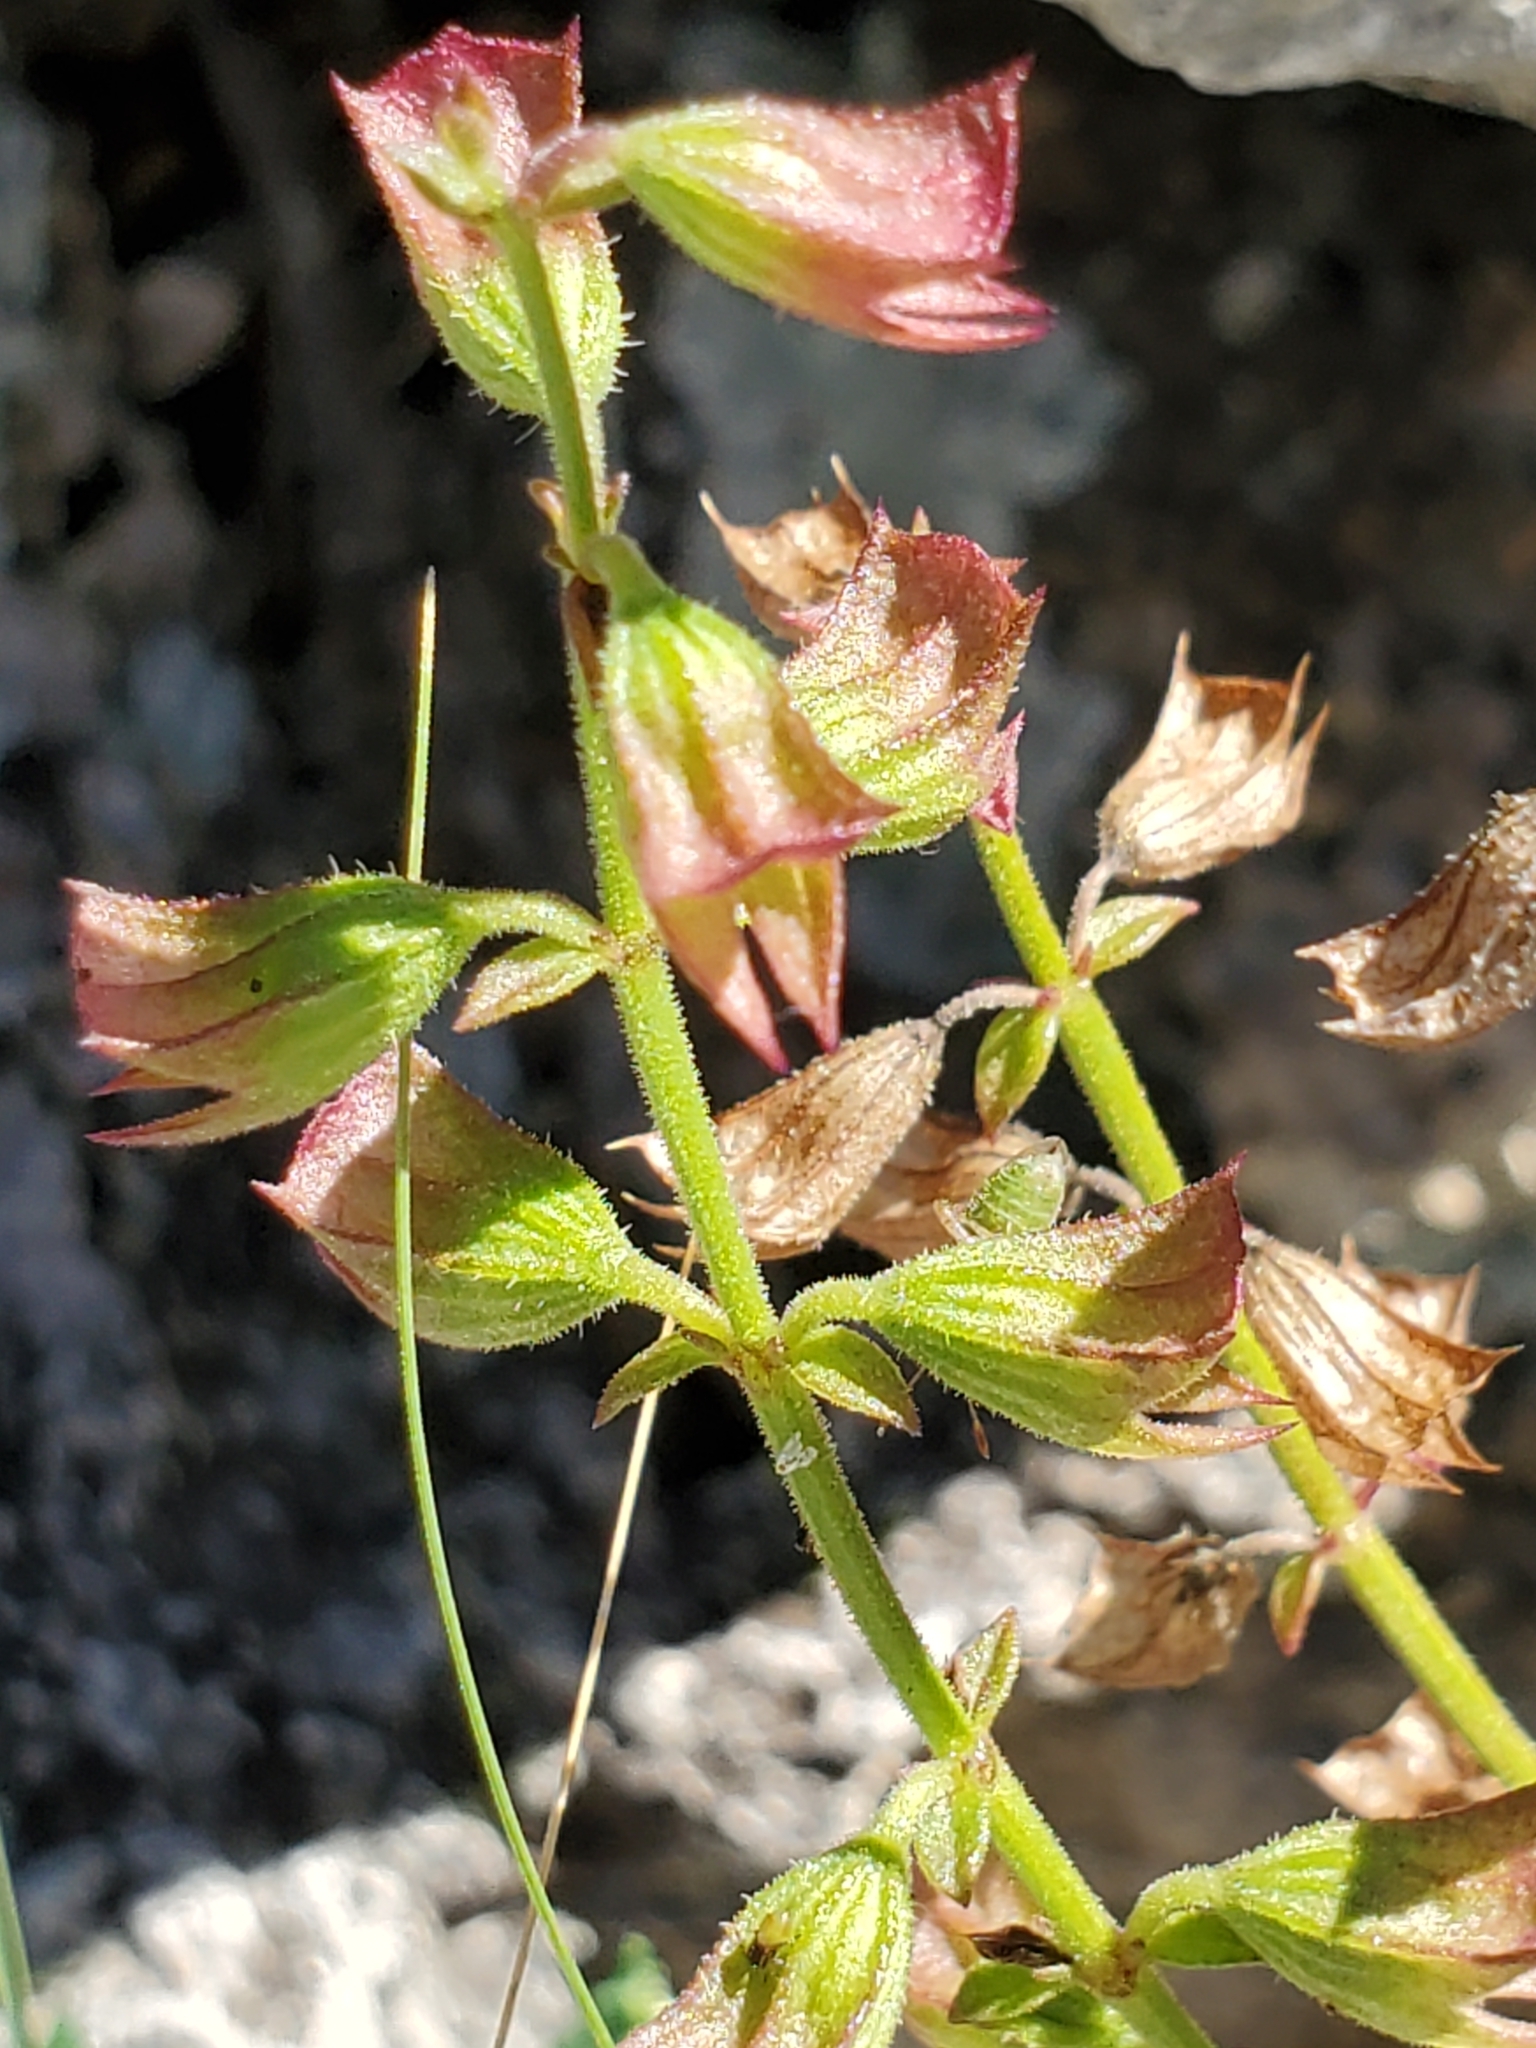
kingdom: Plantae
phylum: Tracheophyta
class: Magnoliopsida
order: Lamiales
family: Lamiaceae
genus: Salvia
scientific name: Salvia roemeriana
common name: Cedar sage
